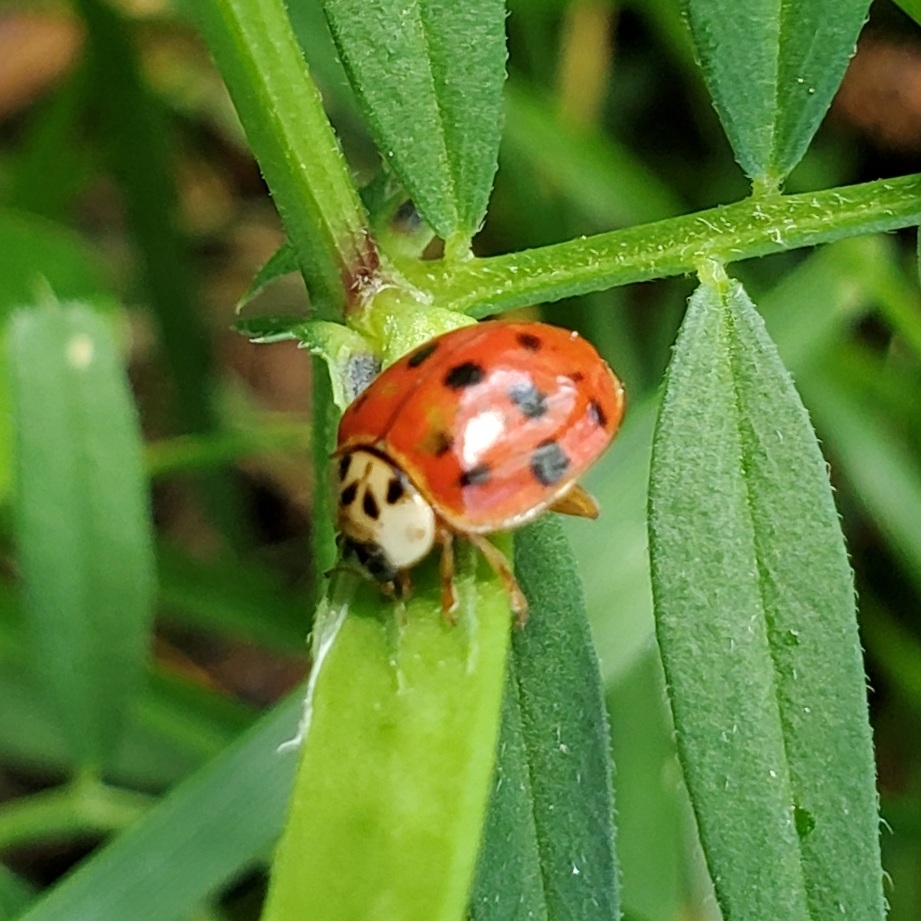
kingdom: Animalia
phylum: Arthropoda
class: Insecta
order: Coleoptera
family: Coccinellidae
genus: Harmonia
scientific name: Harmonia axyridis
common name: Harlequin ladybird
